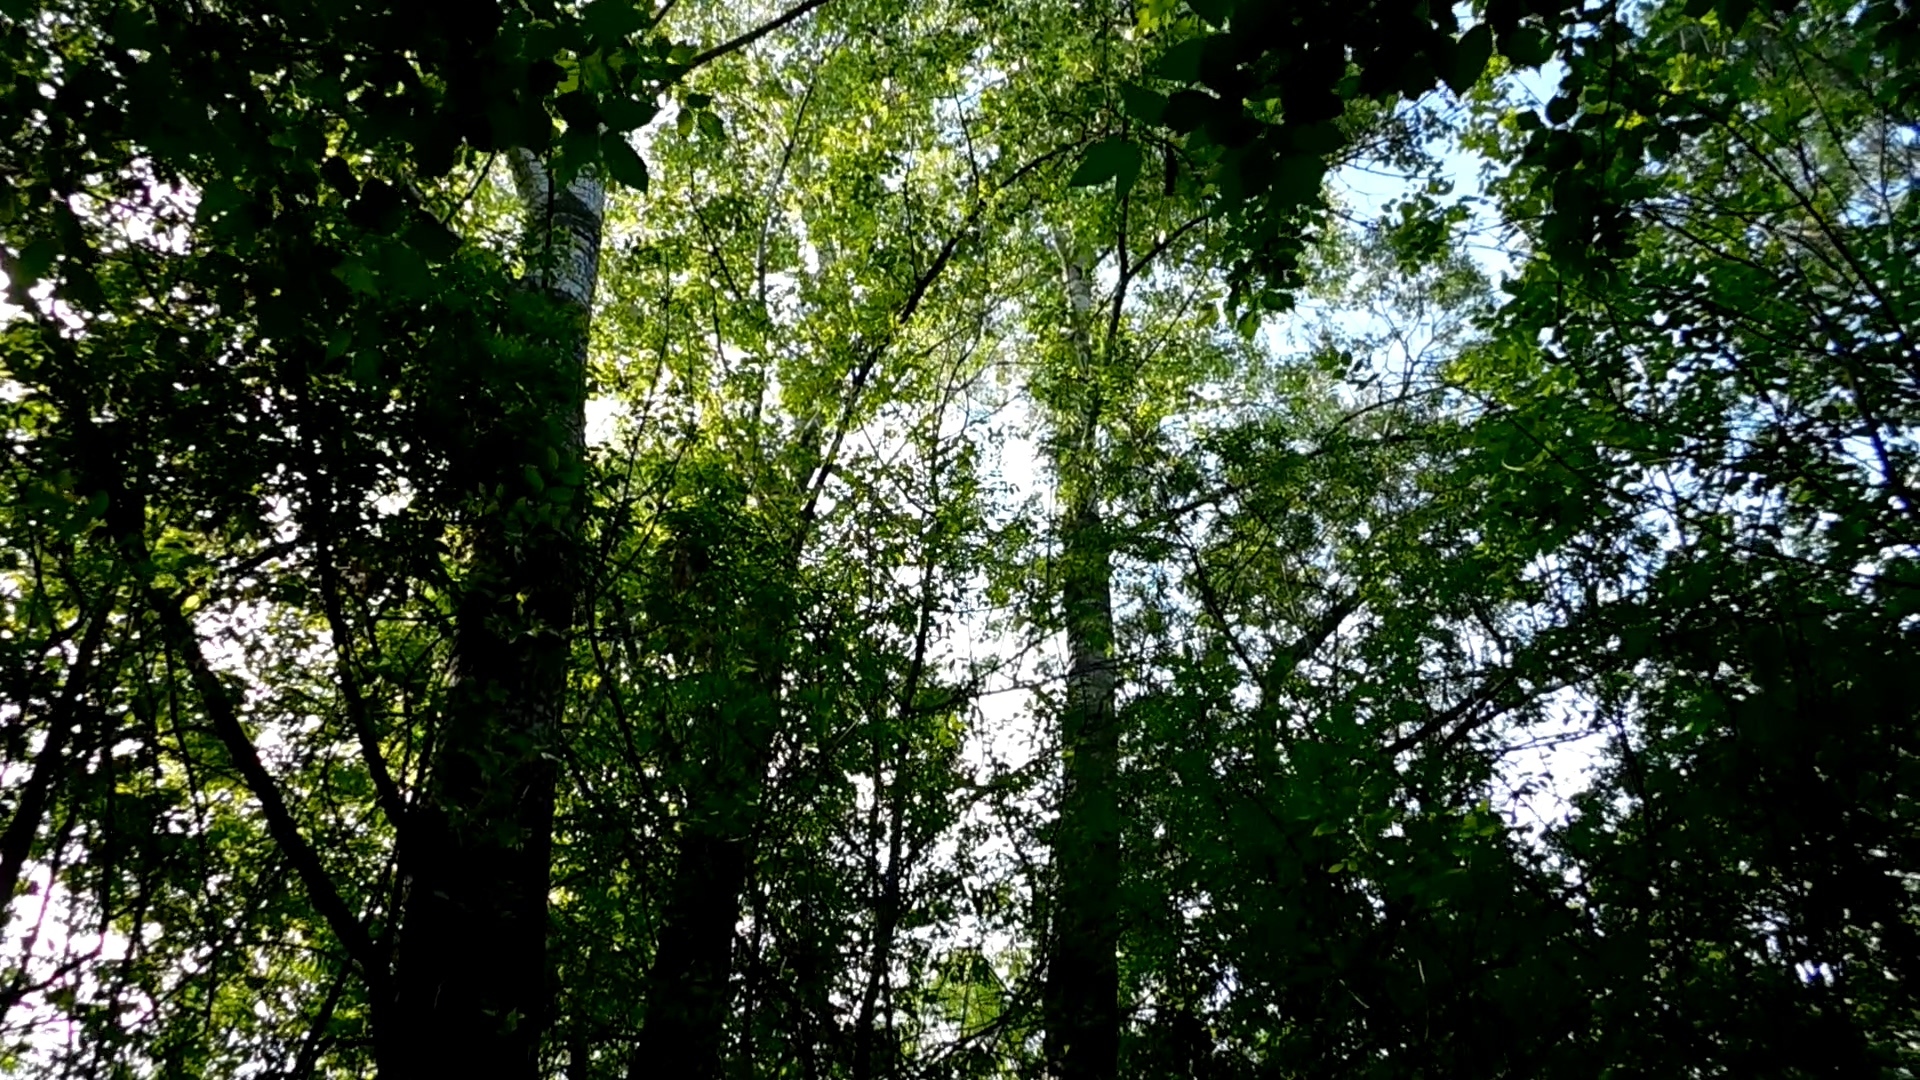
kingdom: Animalia
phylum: Chordata
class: Aves
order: Passeriformes
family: Acrocephalidae
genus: Hippolais
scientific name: Hippolais icterina
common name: Icterine warbler
